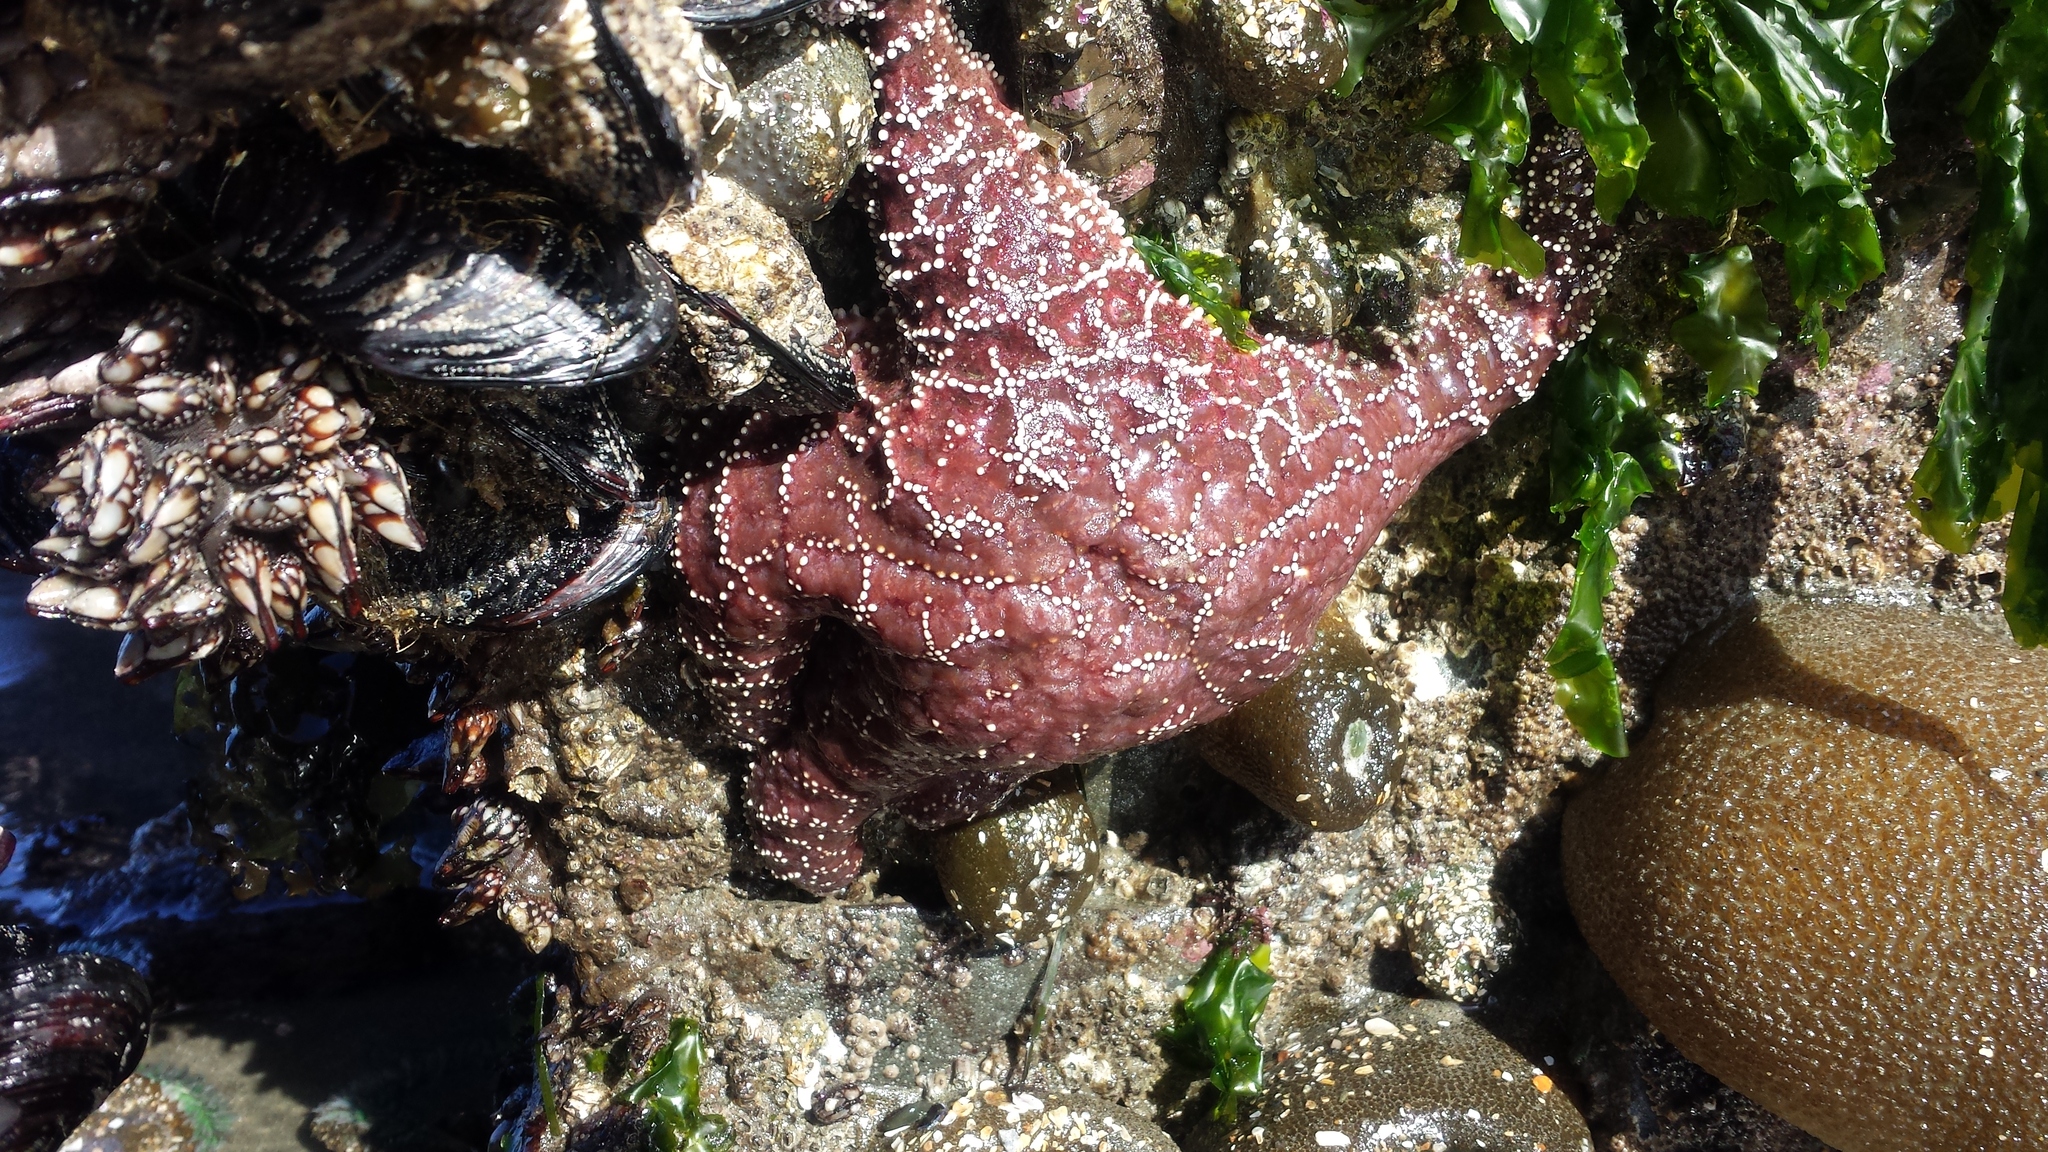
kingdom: Animalia
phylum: Echinodermata
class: Asteroidea
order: Forcipulatida
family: Asteriidae
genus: Pisaster
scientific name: Pisaster ochraceus
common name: Ochre stars
